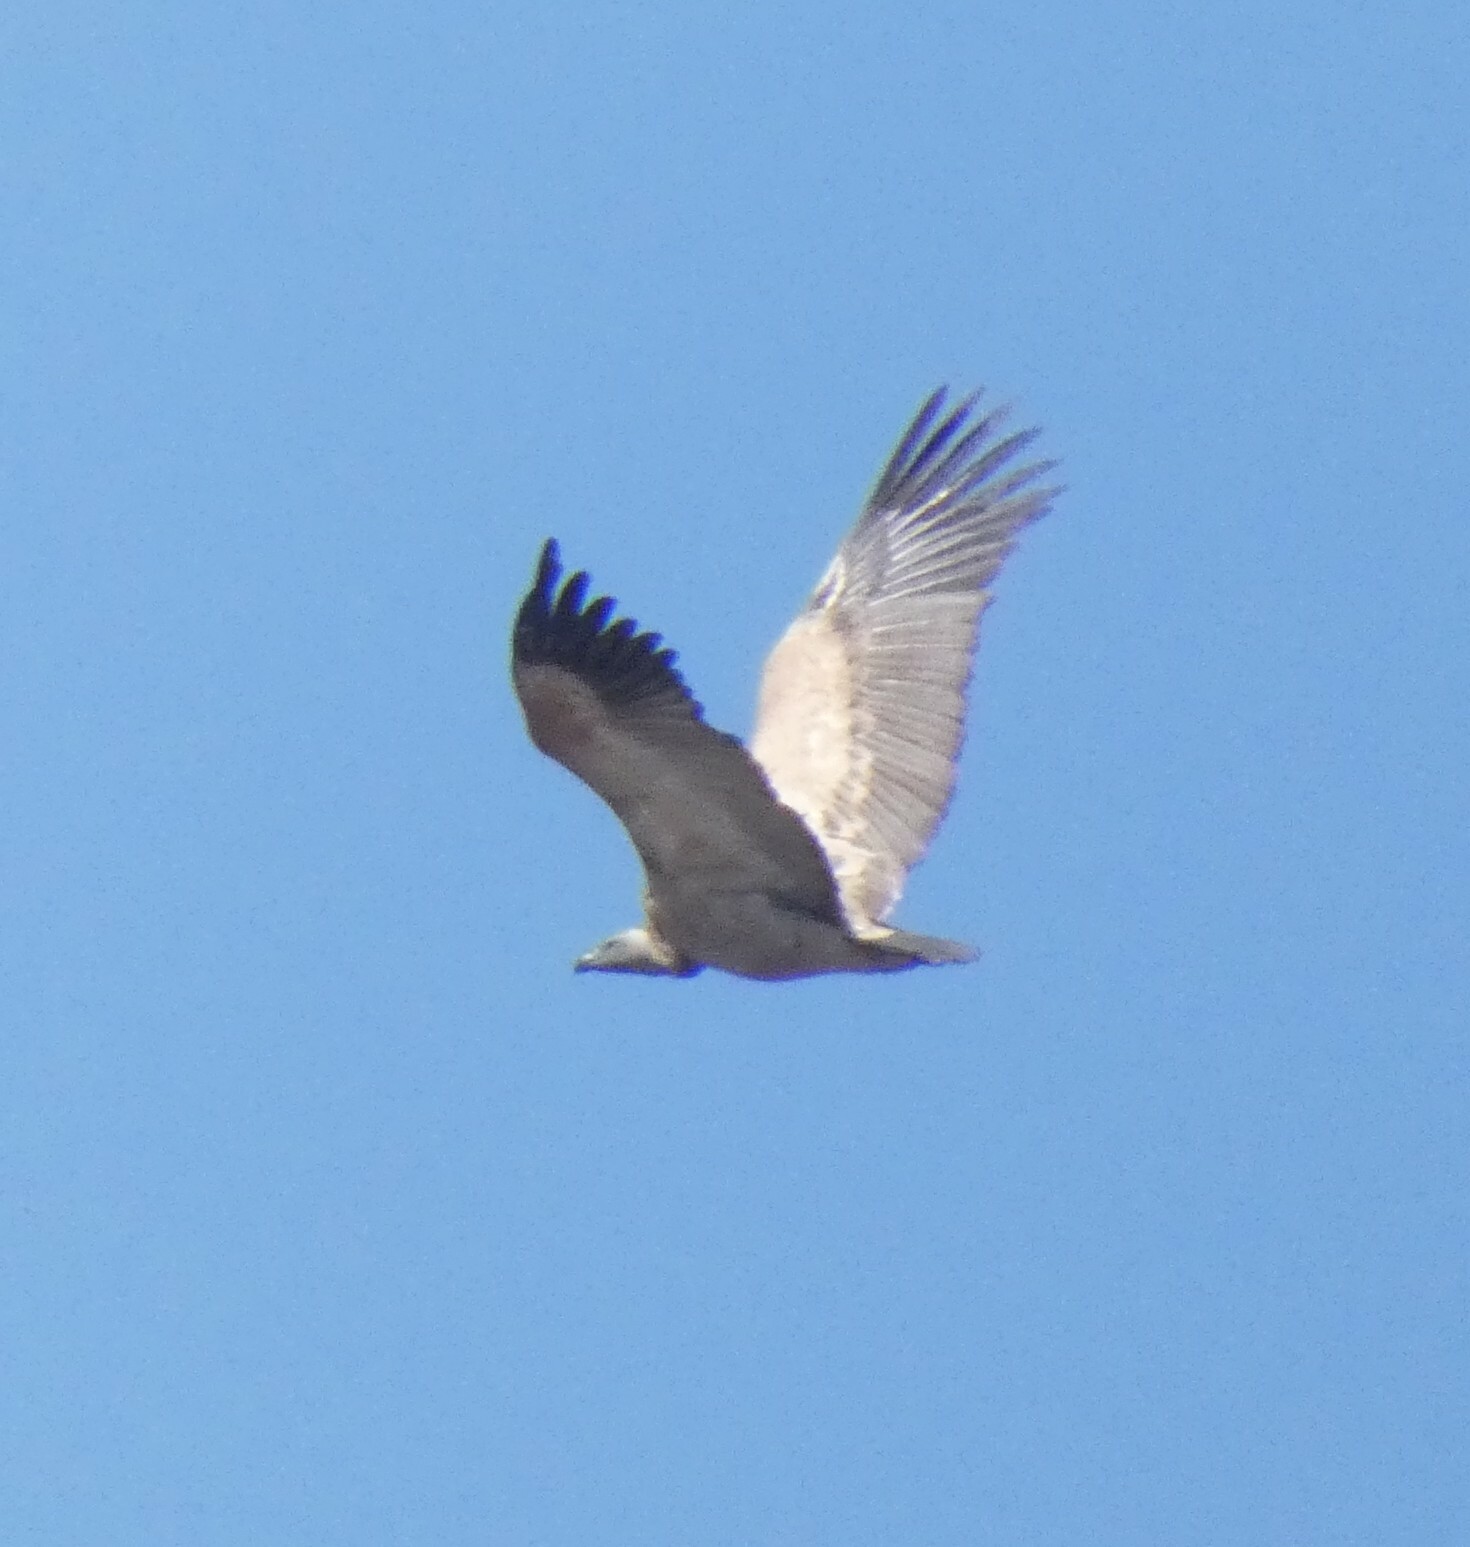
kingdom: Animalia
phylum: Chordata
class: Aves
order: Accipitriformes
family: Accipitridae
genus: Gyps
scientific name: Gyps coprotheres
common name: Cape vulture
